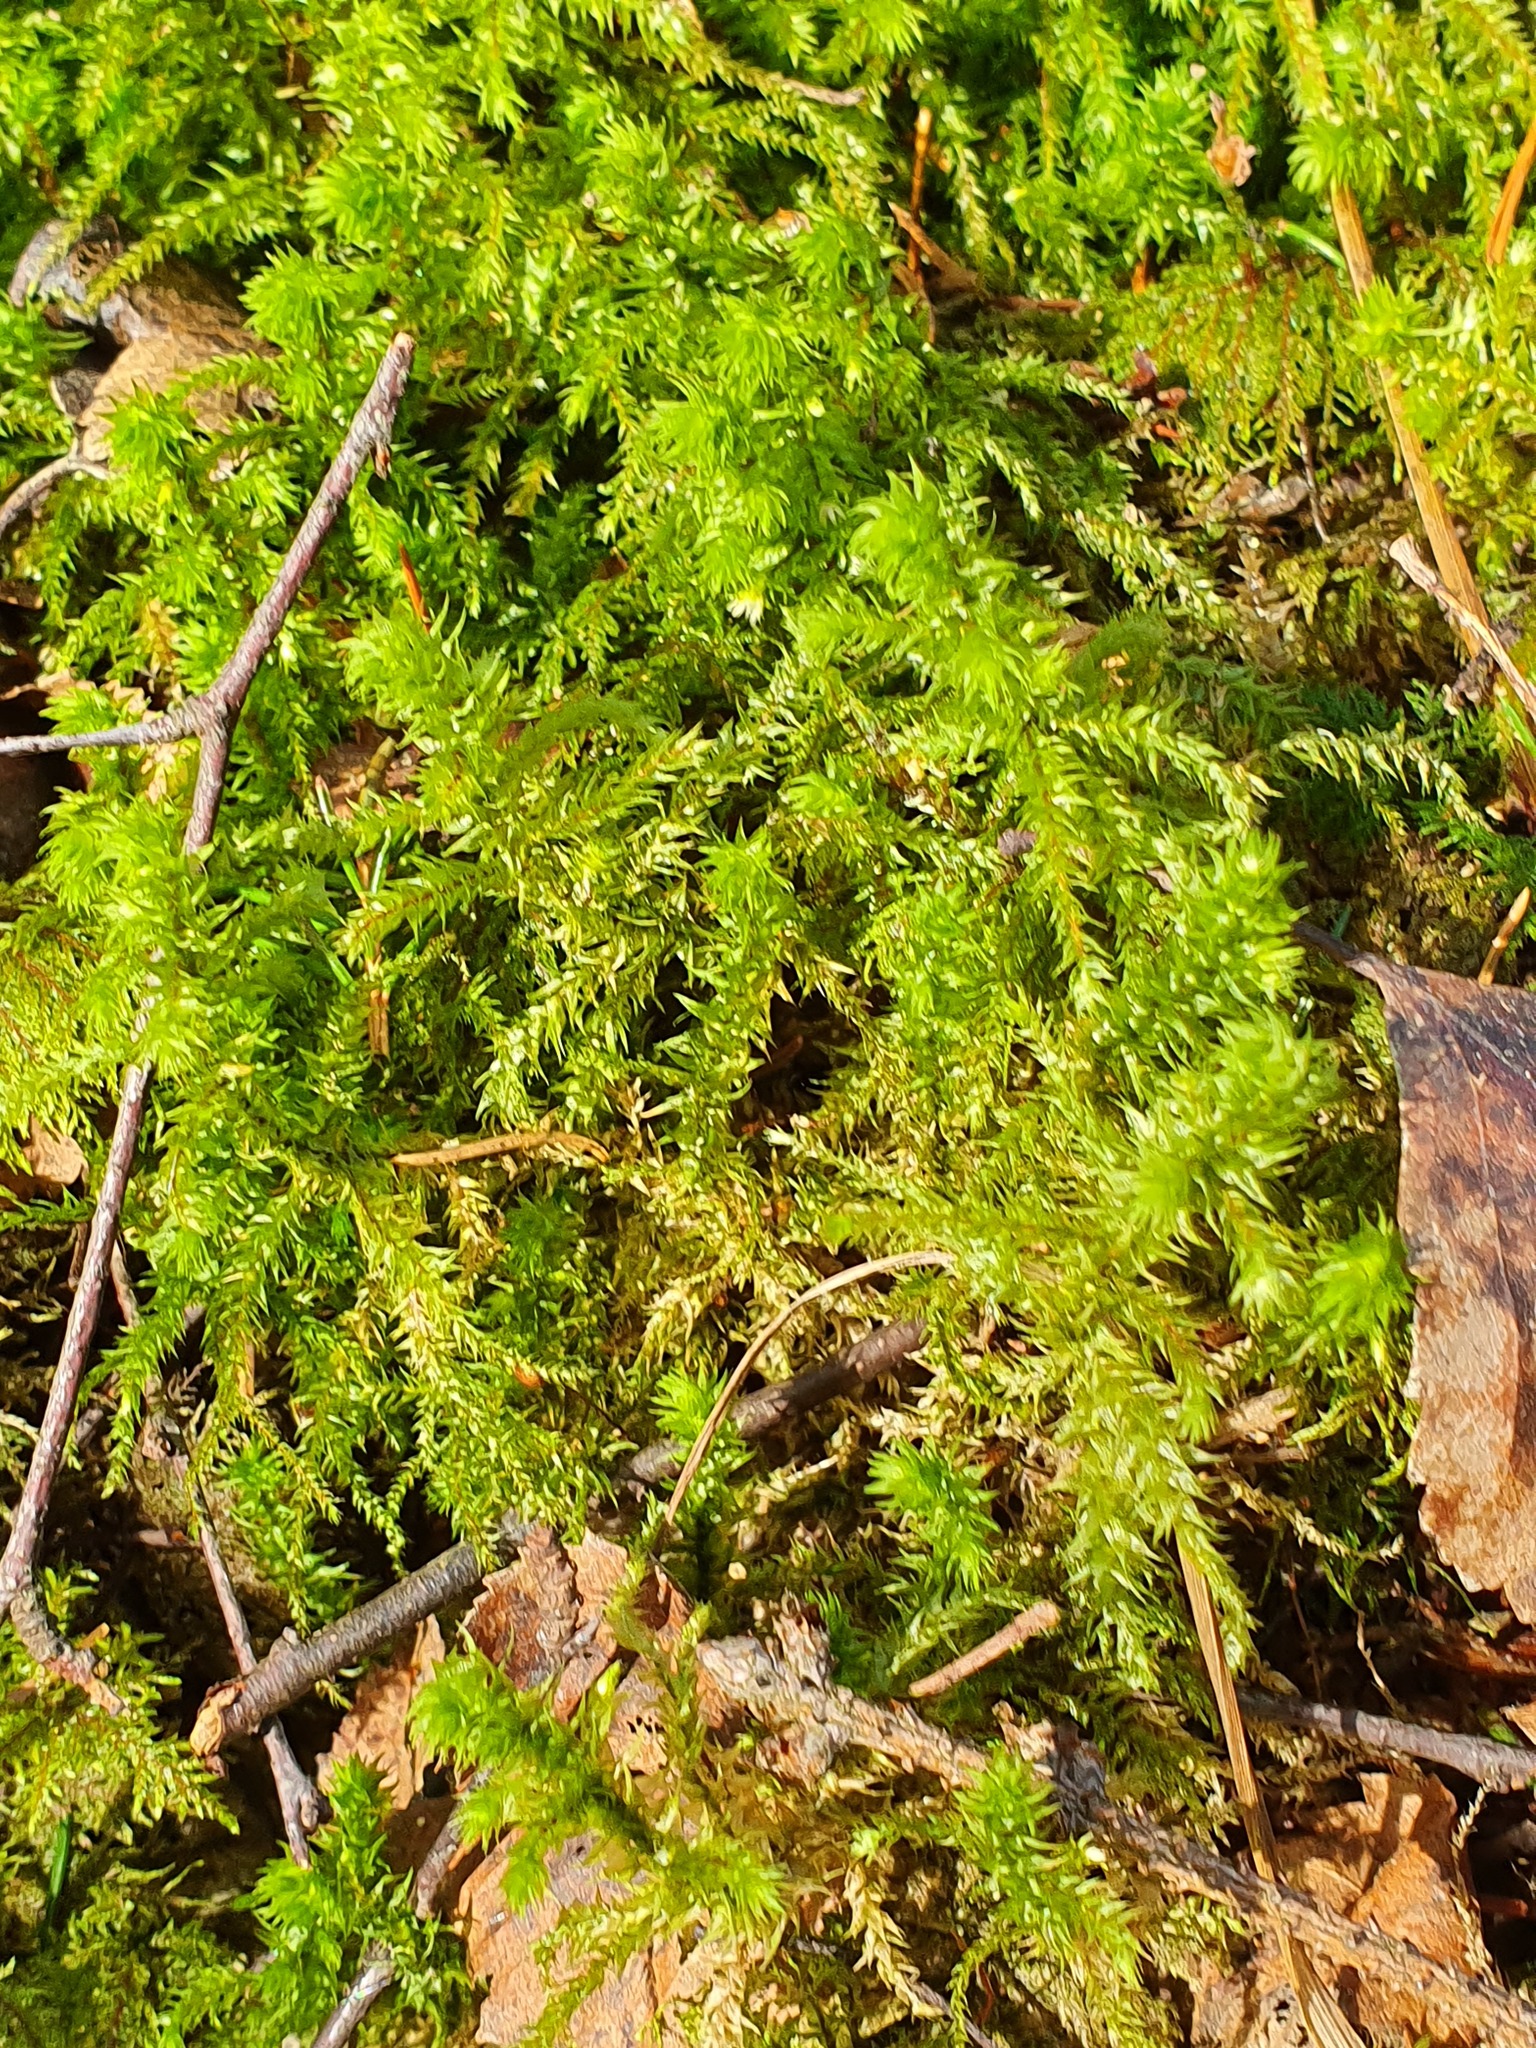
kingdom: Plantae
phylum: Bryophyta
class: Bryopsida
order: Hypnales
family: Hylocomiaceae
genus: Hylocomiadelphus
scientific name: Hylocomiadelphus triquetrus
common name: Rough goose neck moss
